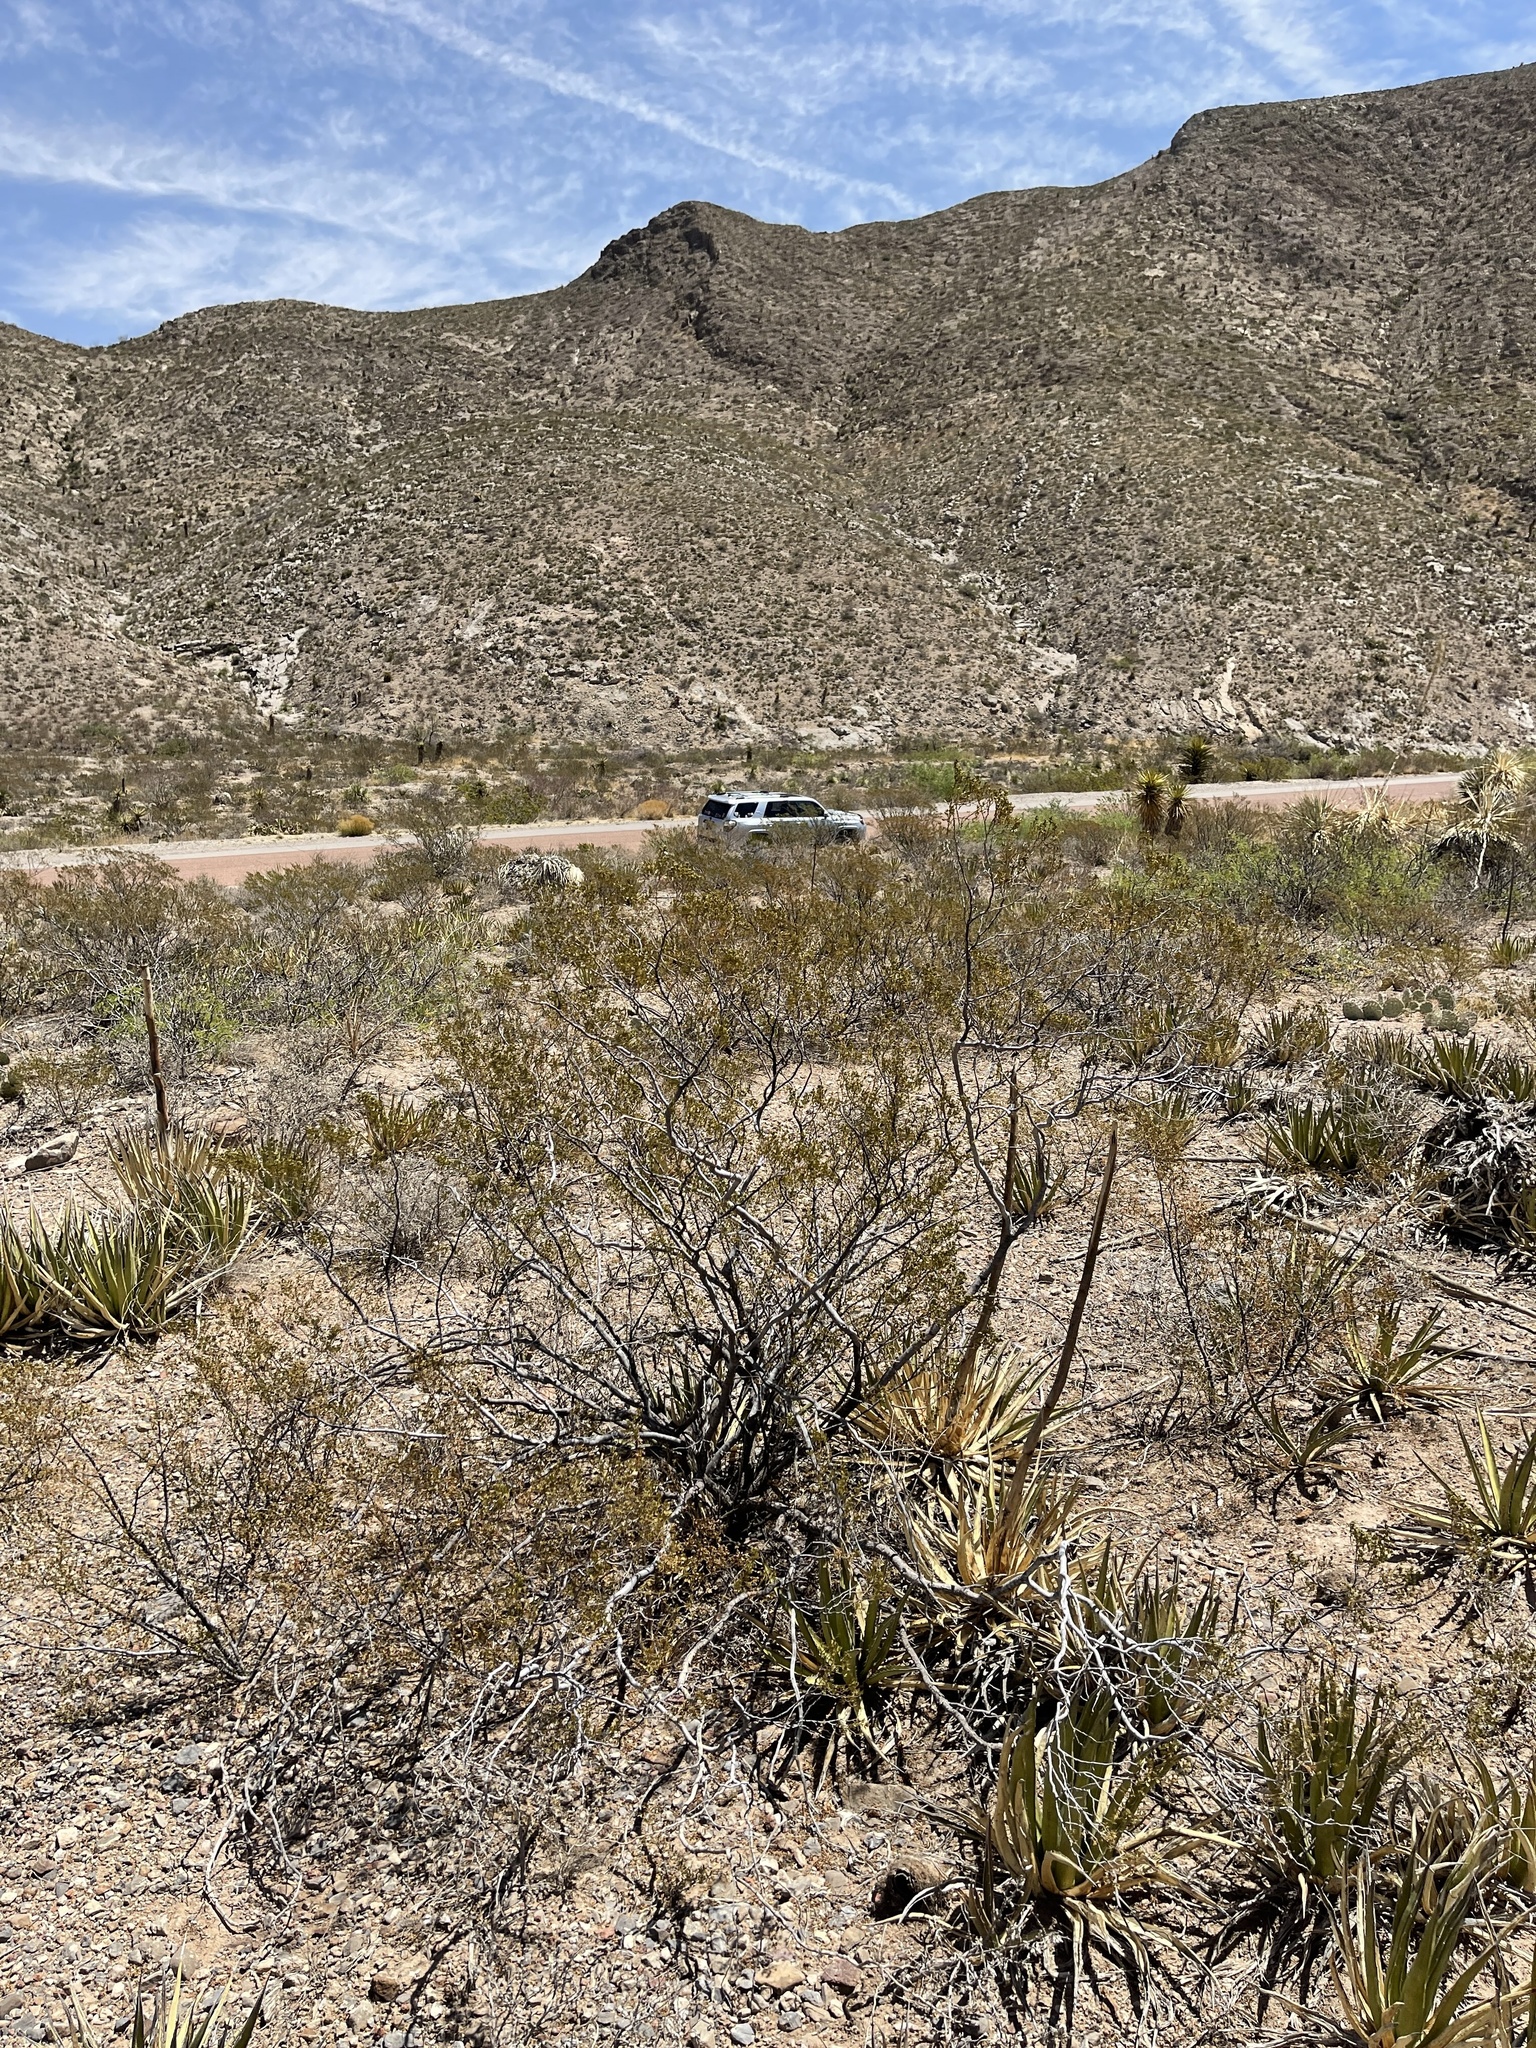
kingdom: Plantae
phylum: Tracheophyta
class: Magnoliopsida
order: Zygophyllales
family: Zygophyllaceae
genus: Larrea
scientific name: Larrea tridentata
